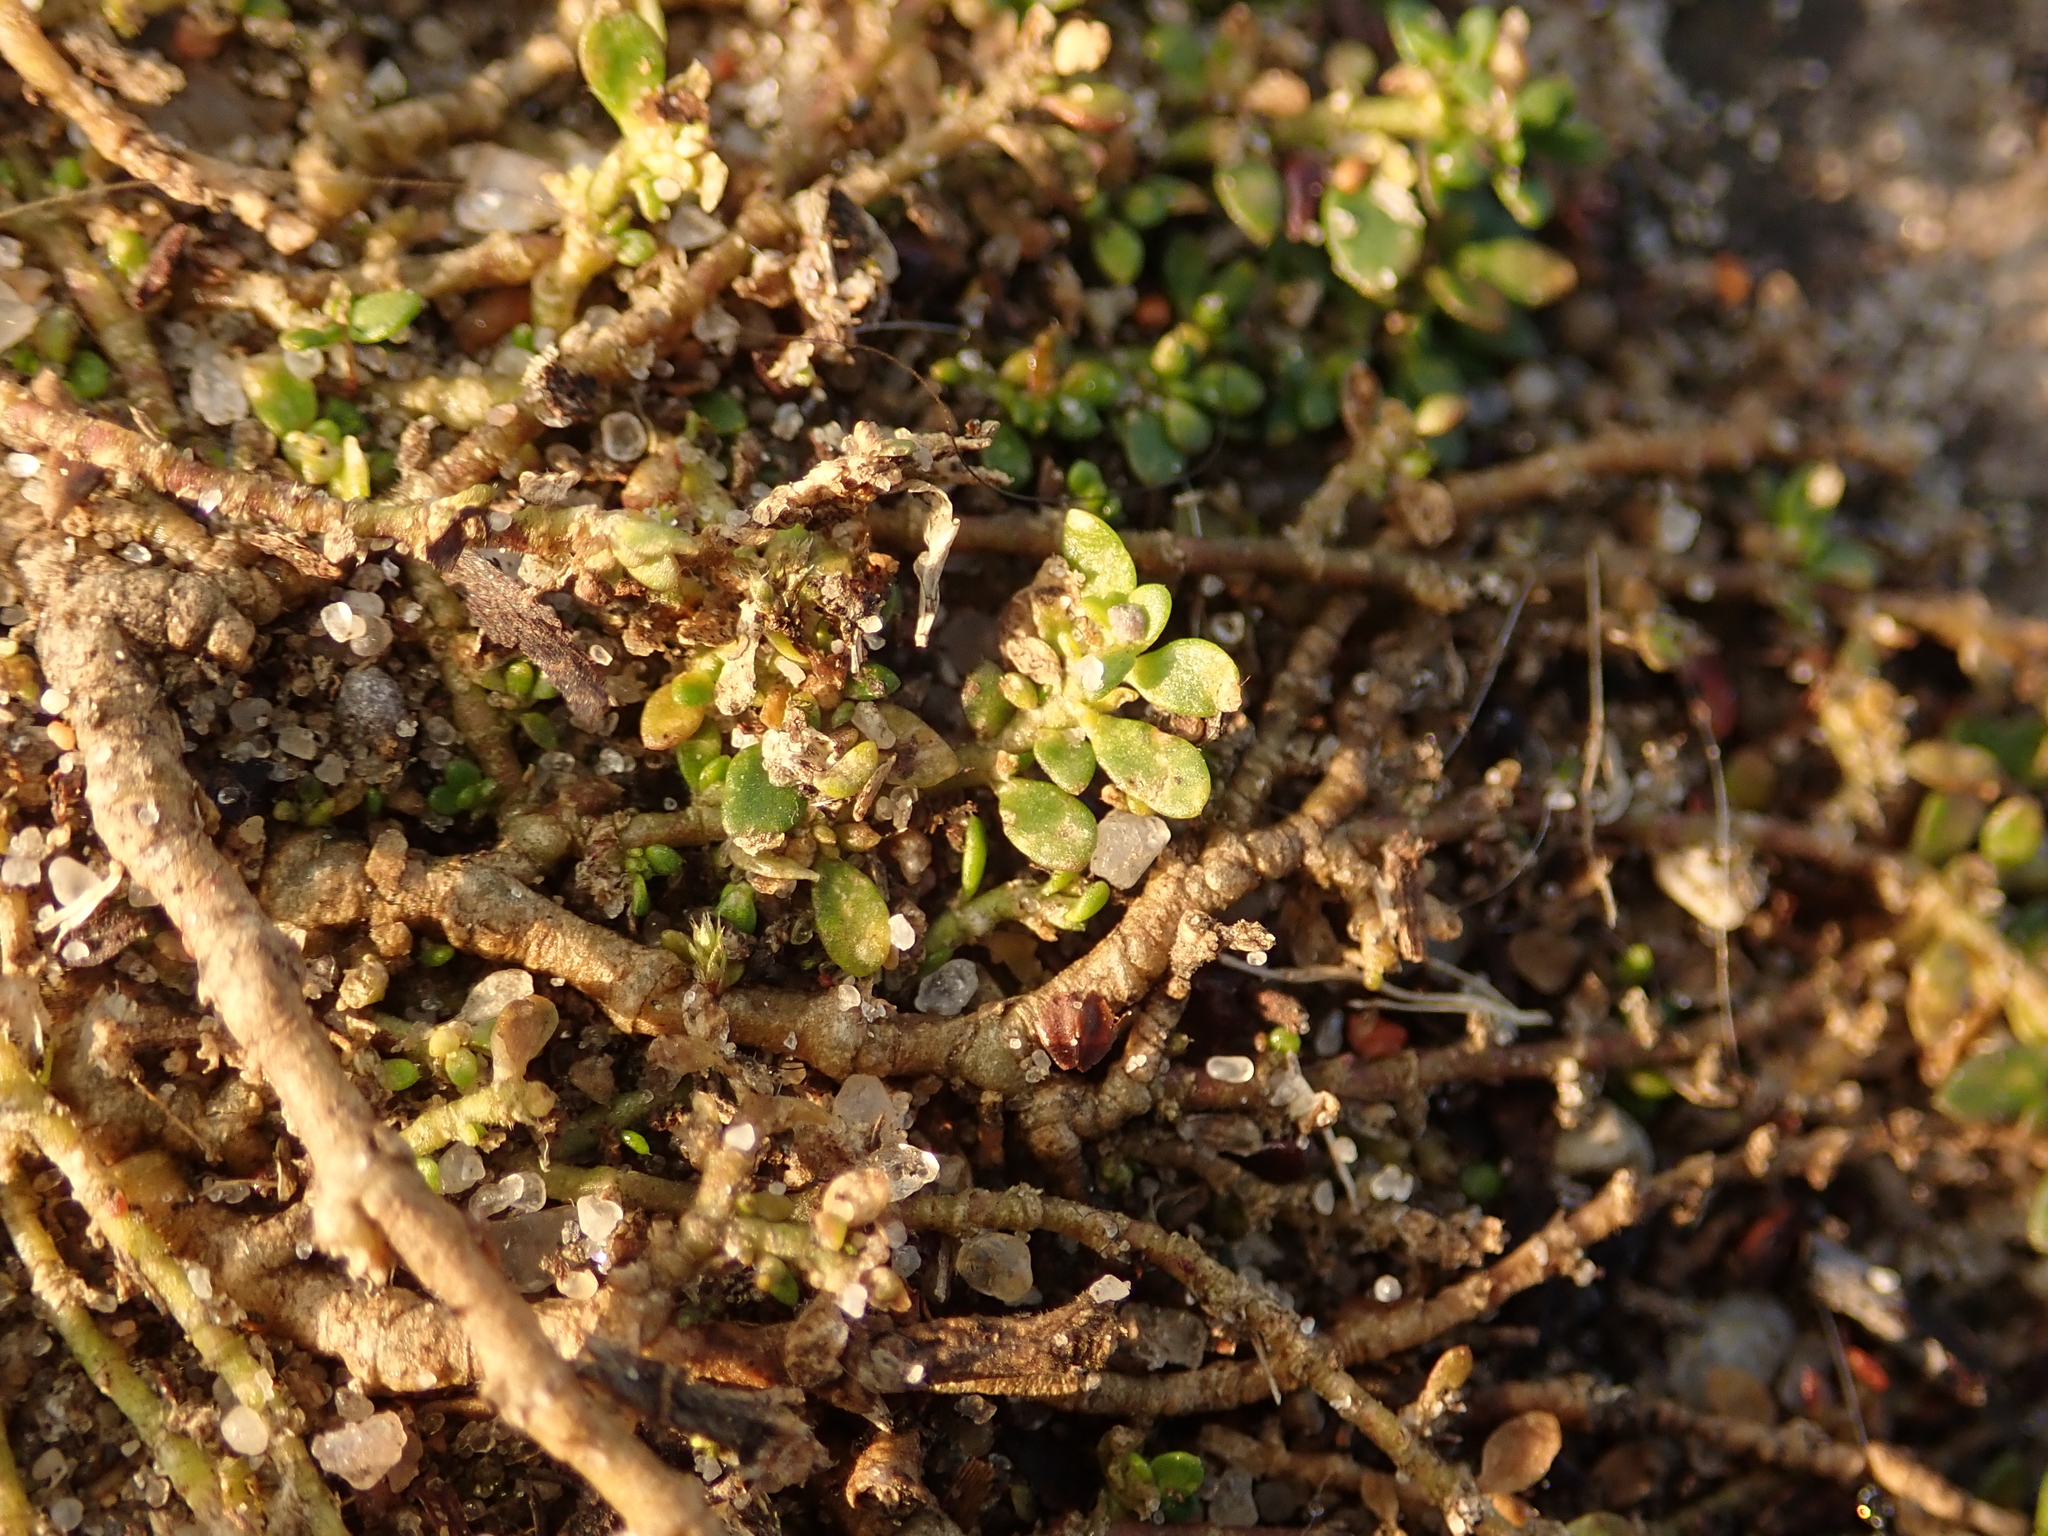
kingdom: Plantae
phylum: Tracheophyta
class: Magnoliopsida
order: Caryophyllales
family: Caryophyllaceae
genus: Herniaria
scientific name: Herniaria glabra
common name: Smooth rupturewort
